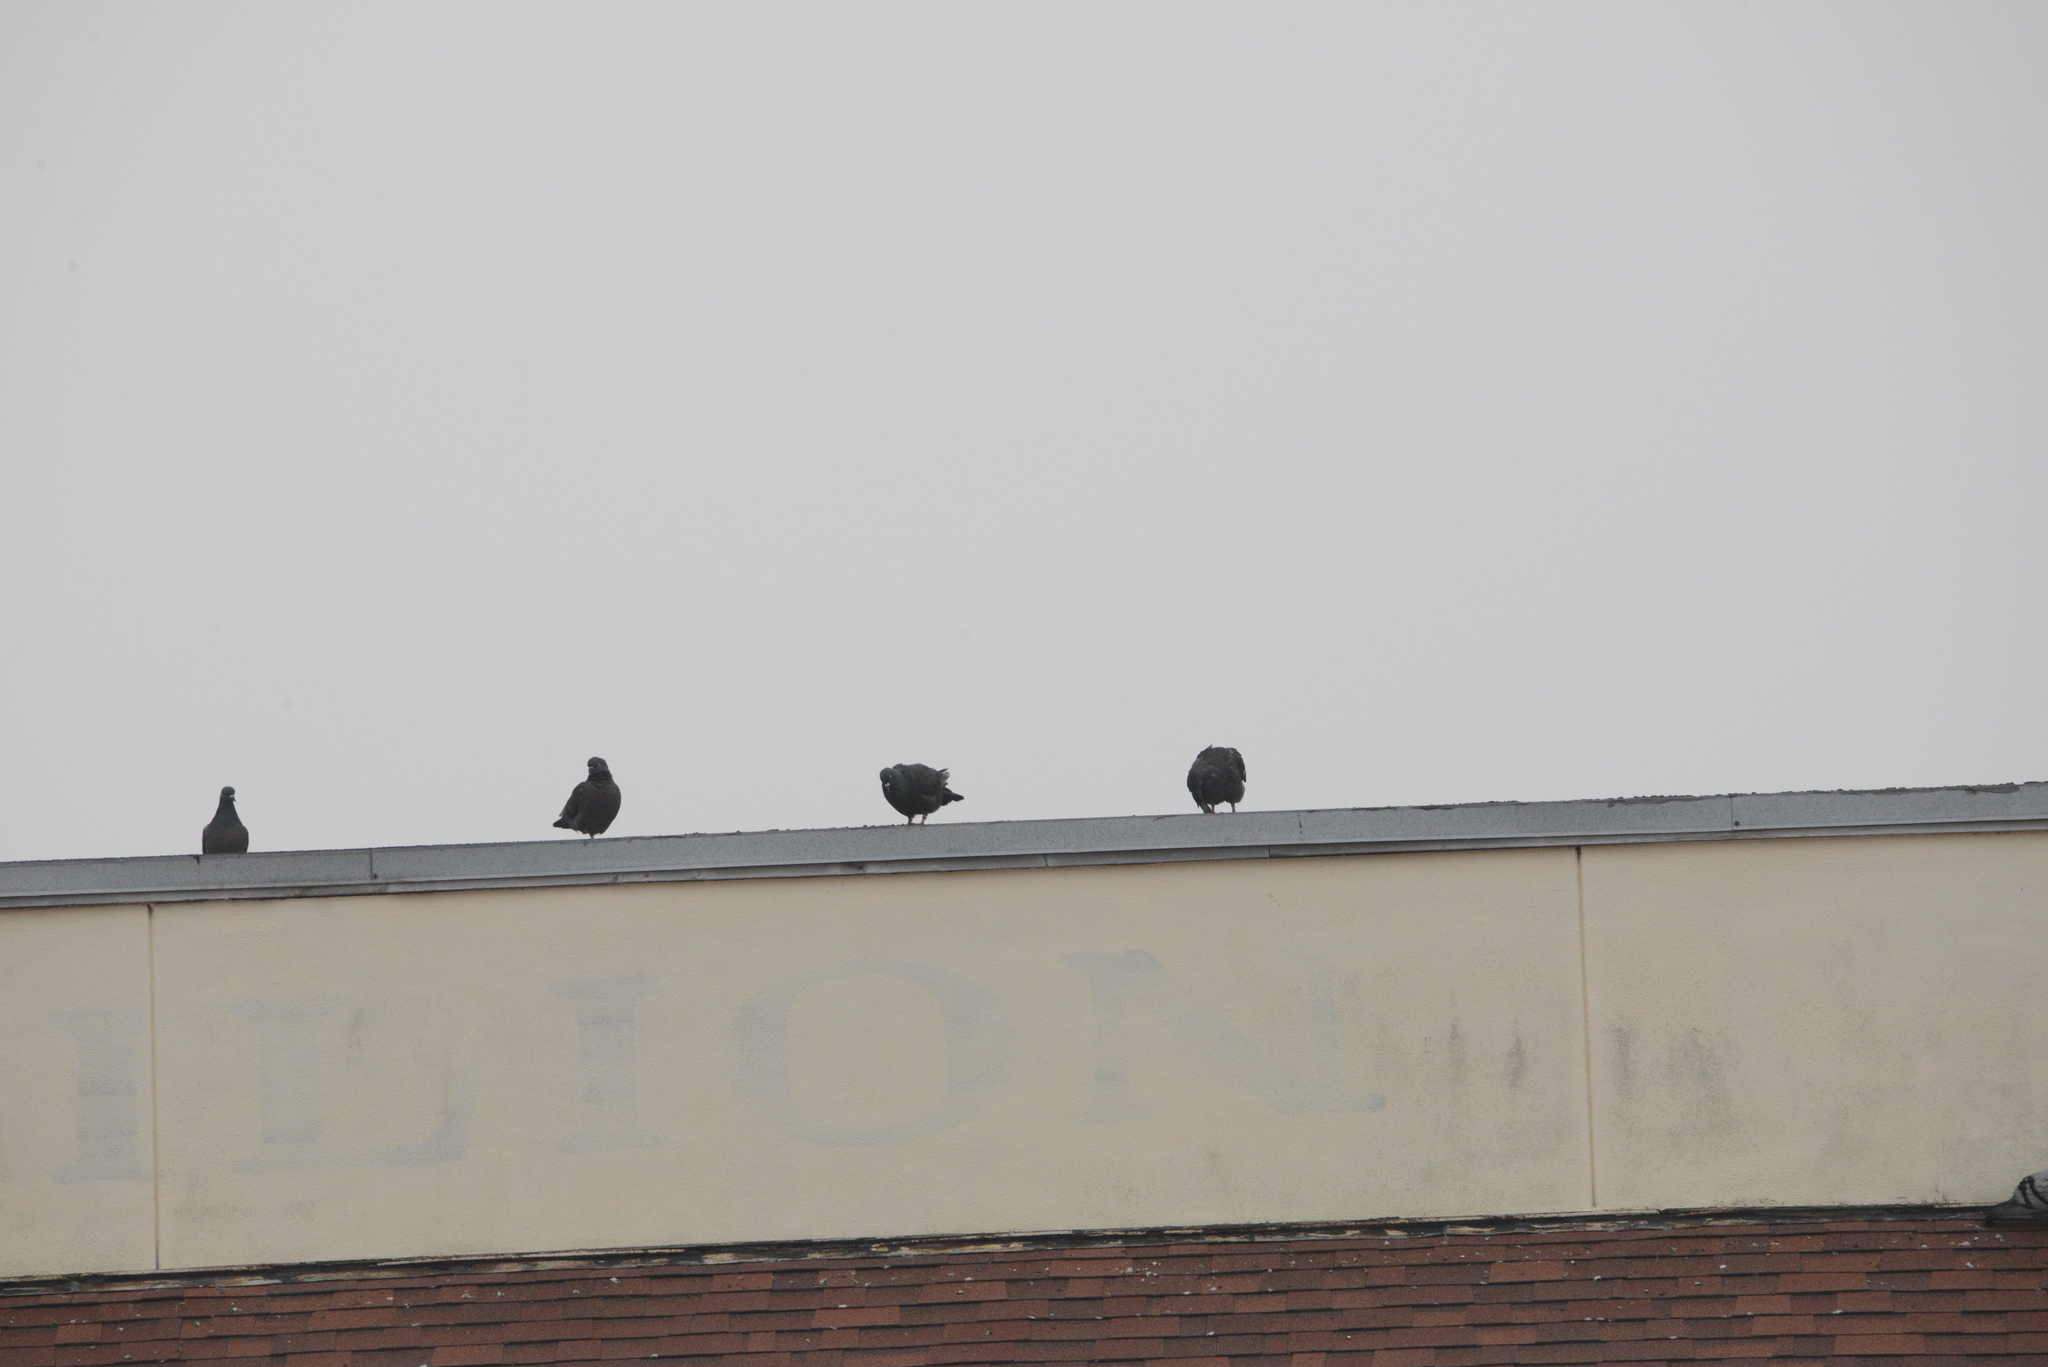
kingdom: Animalia
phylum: Chordata
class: Aves
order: Columbiformes
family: Columbidae
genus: Columba
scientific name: Columba livia
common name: Rock pigeon
